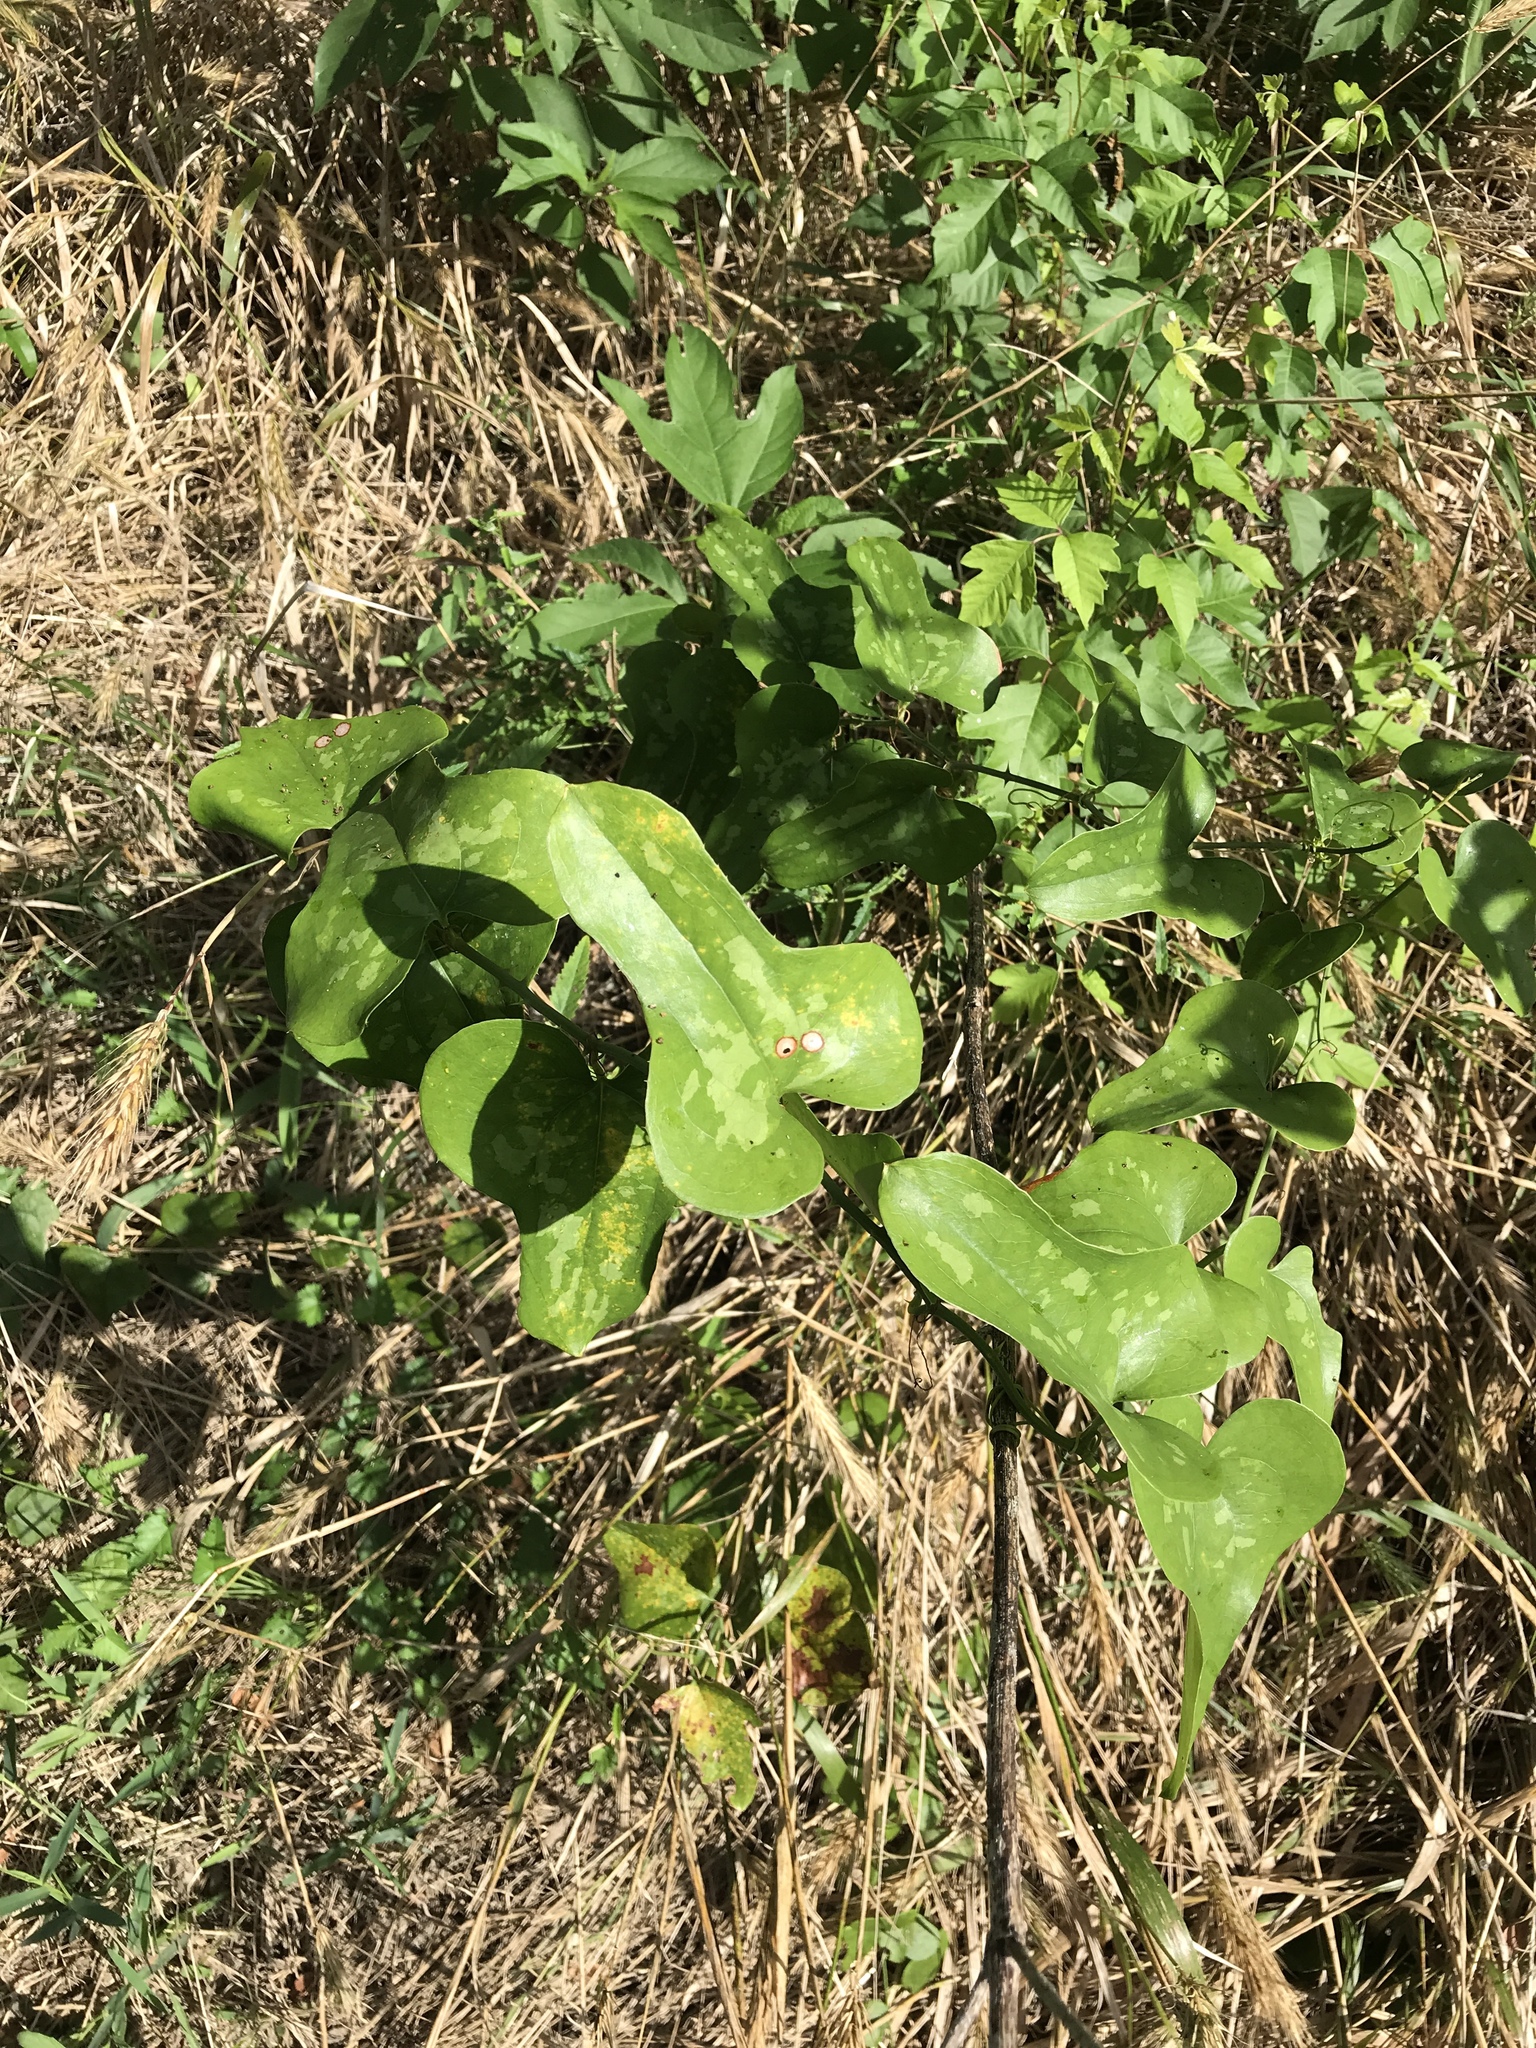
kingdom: Plantae
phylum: Tracheophyta
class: Liliopsida
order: Liliales
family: Smilacaceae
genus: Smilax
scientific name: Smilax bona-nox
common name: Catbrier
